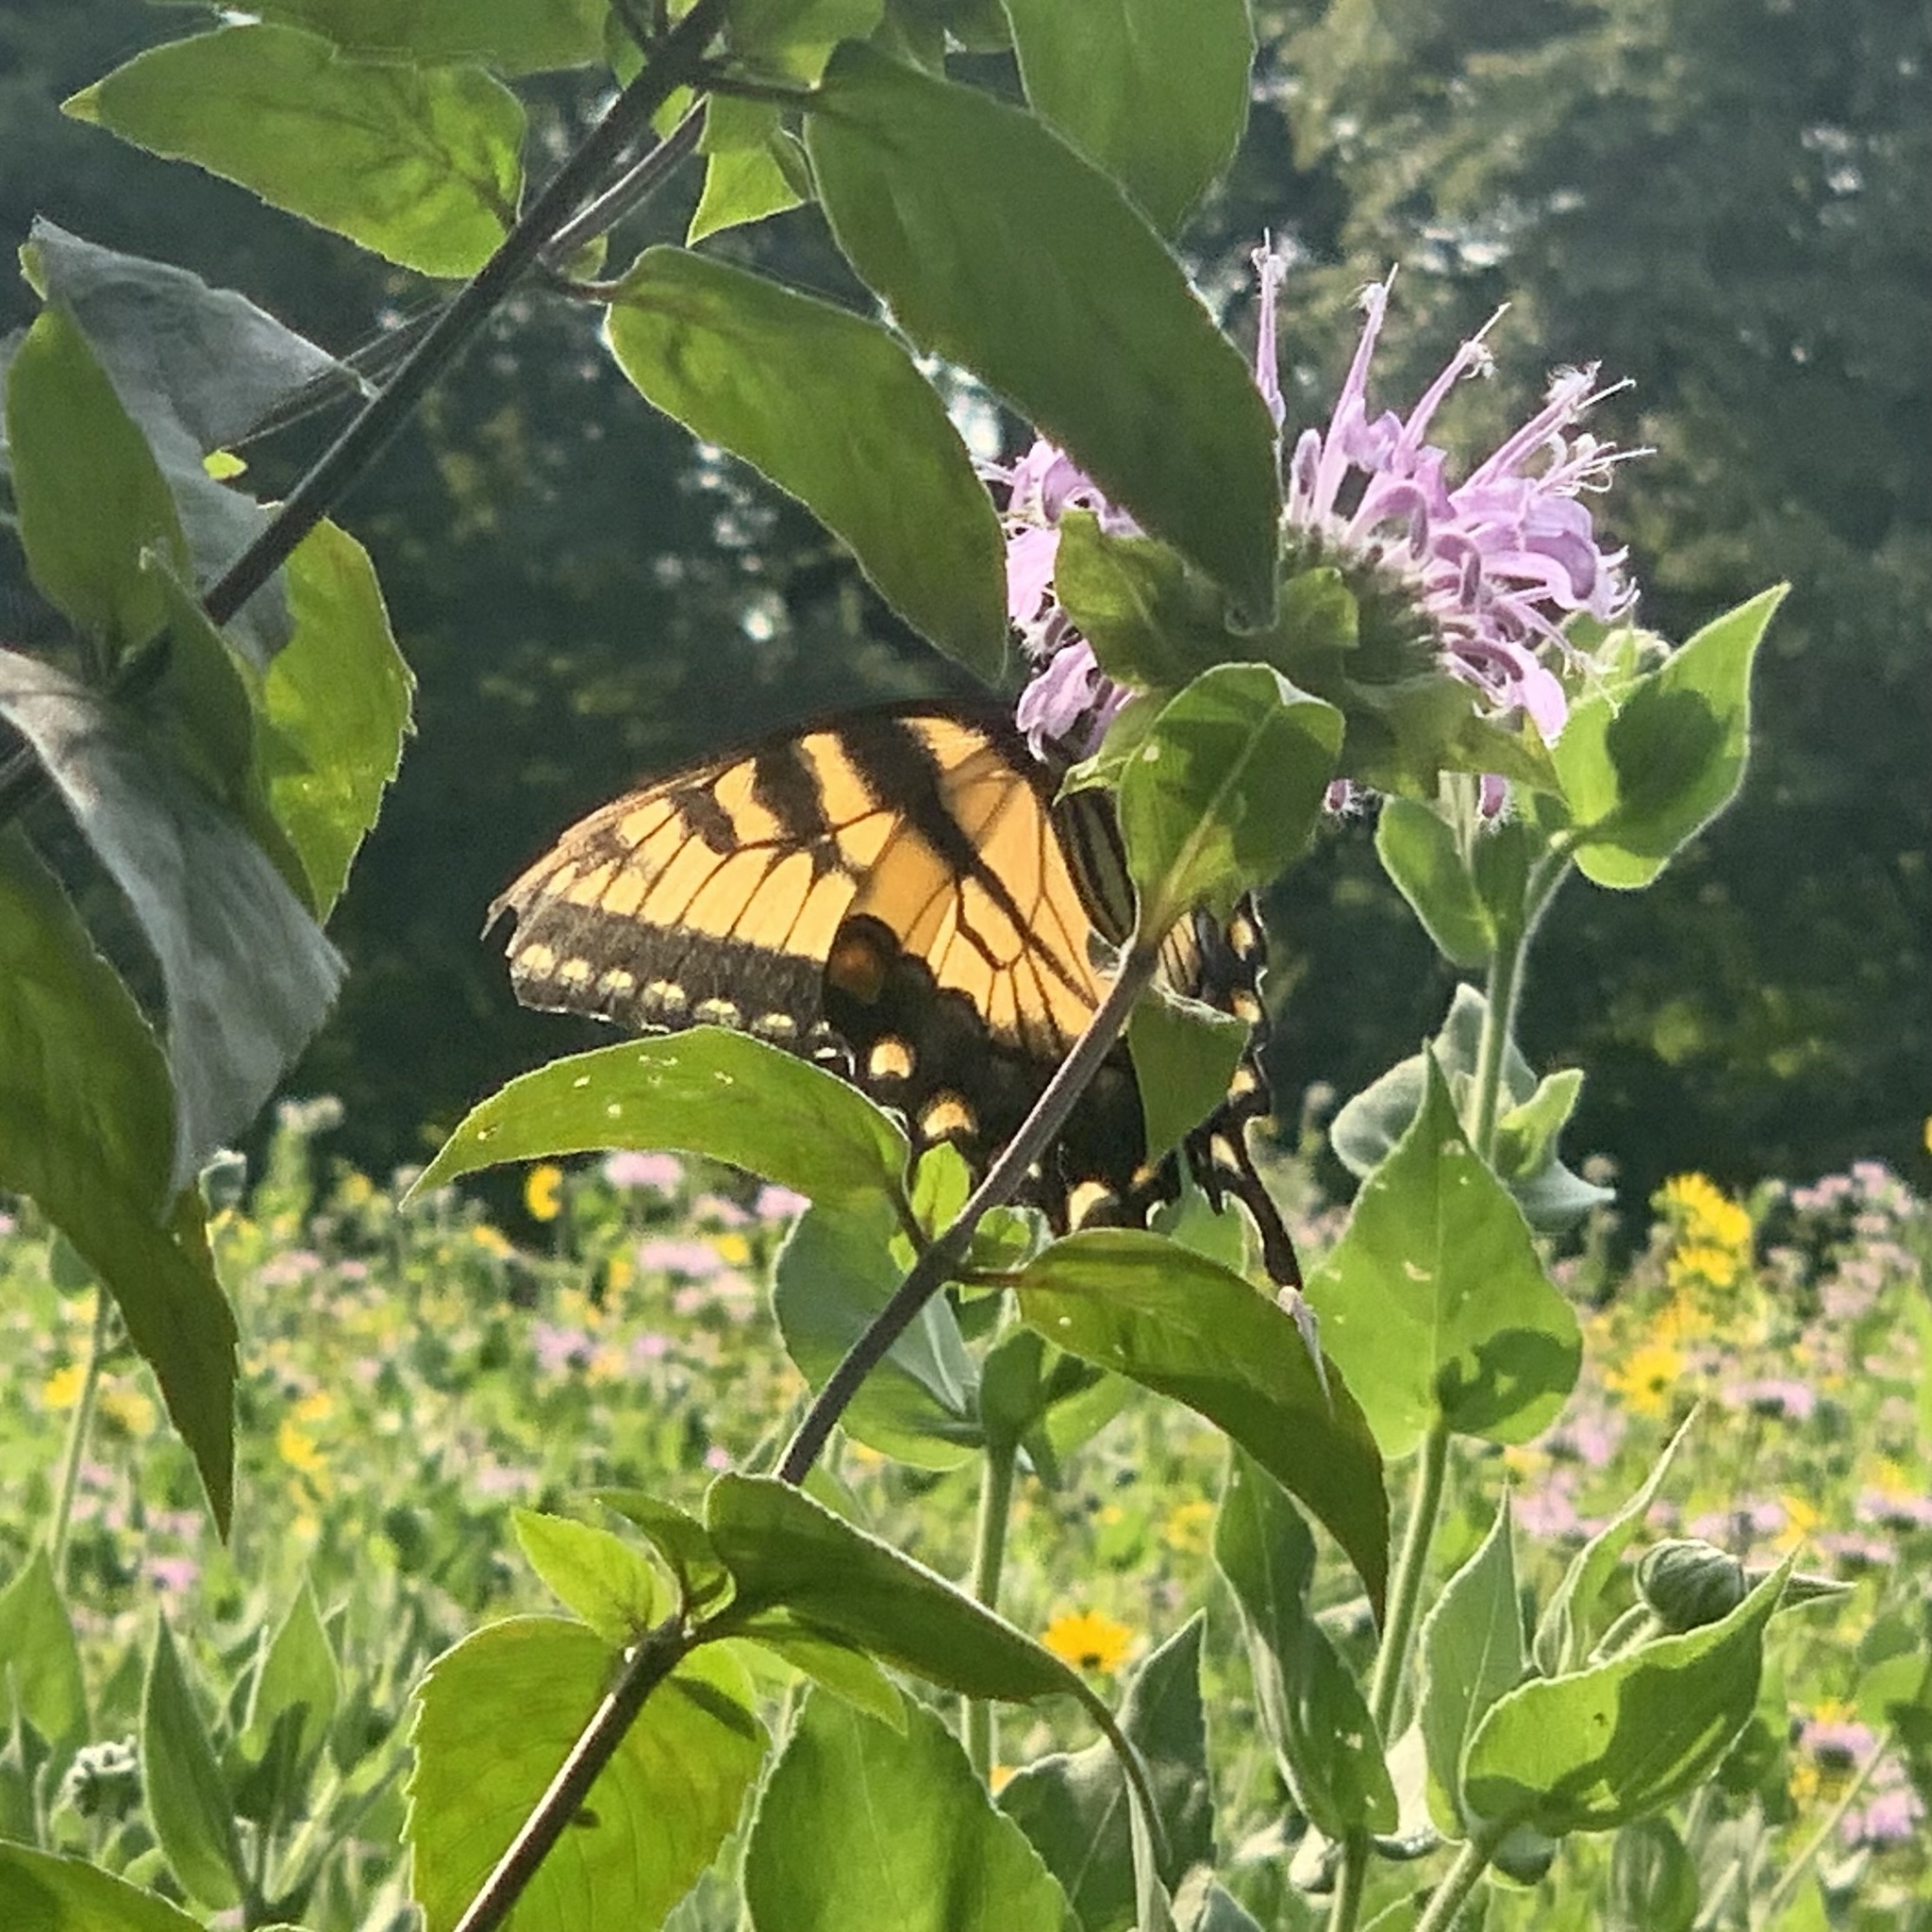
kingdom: Animalia
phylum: Arthropoda
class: Insecta
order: Lepidoptera
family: Papilionidae
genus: Papilio
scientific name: Papilio glaucus
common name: Tiger swallowtail
